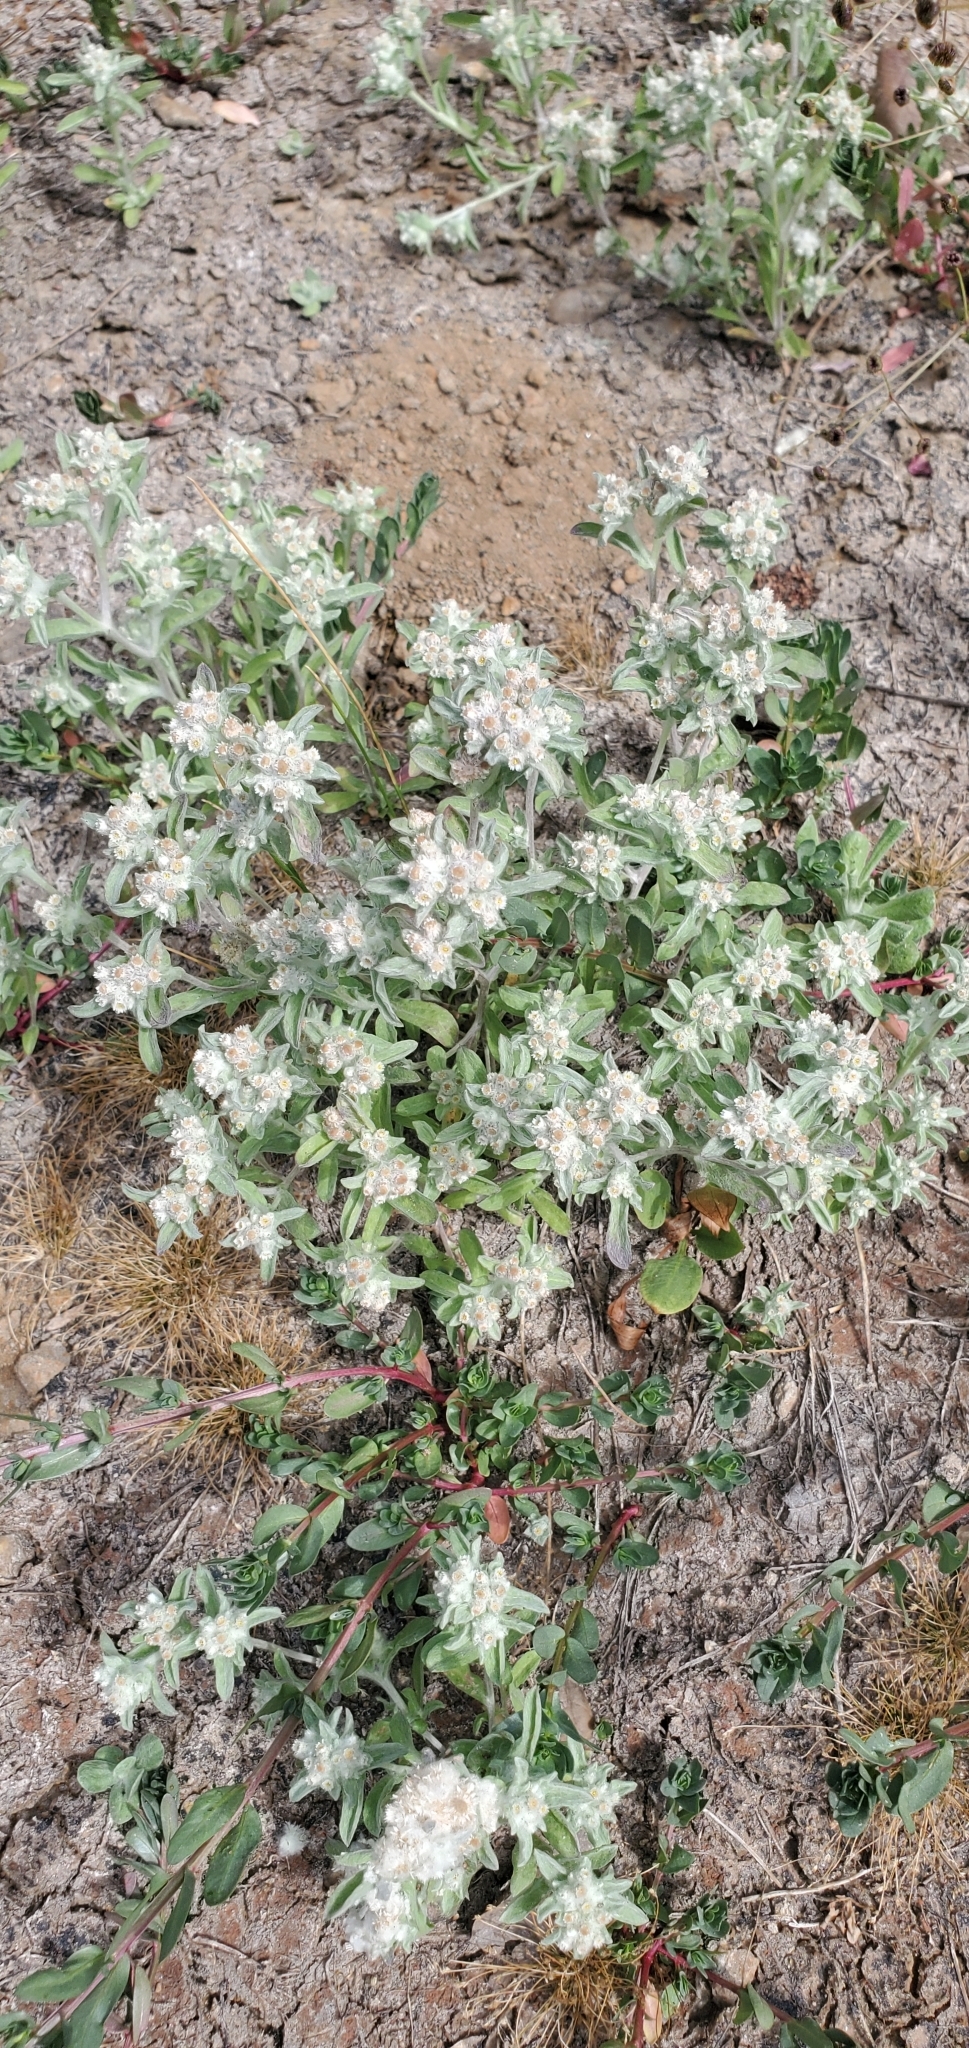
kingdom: Plantae
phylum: Tracheophyta
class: Magnoliopsida
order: Asterales
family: Asteraceae
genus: Gnaphalium
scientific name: Gnaphalium palustre
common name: Western marsh cudweed
